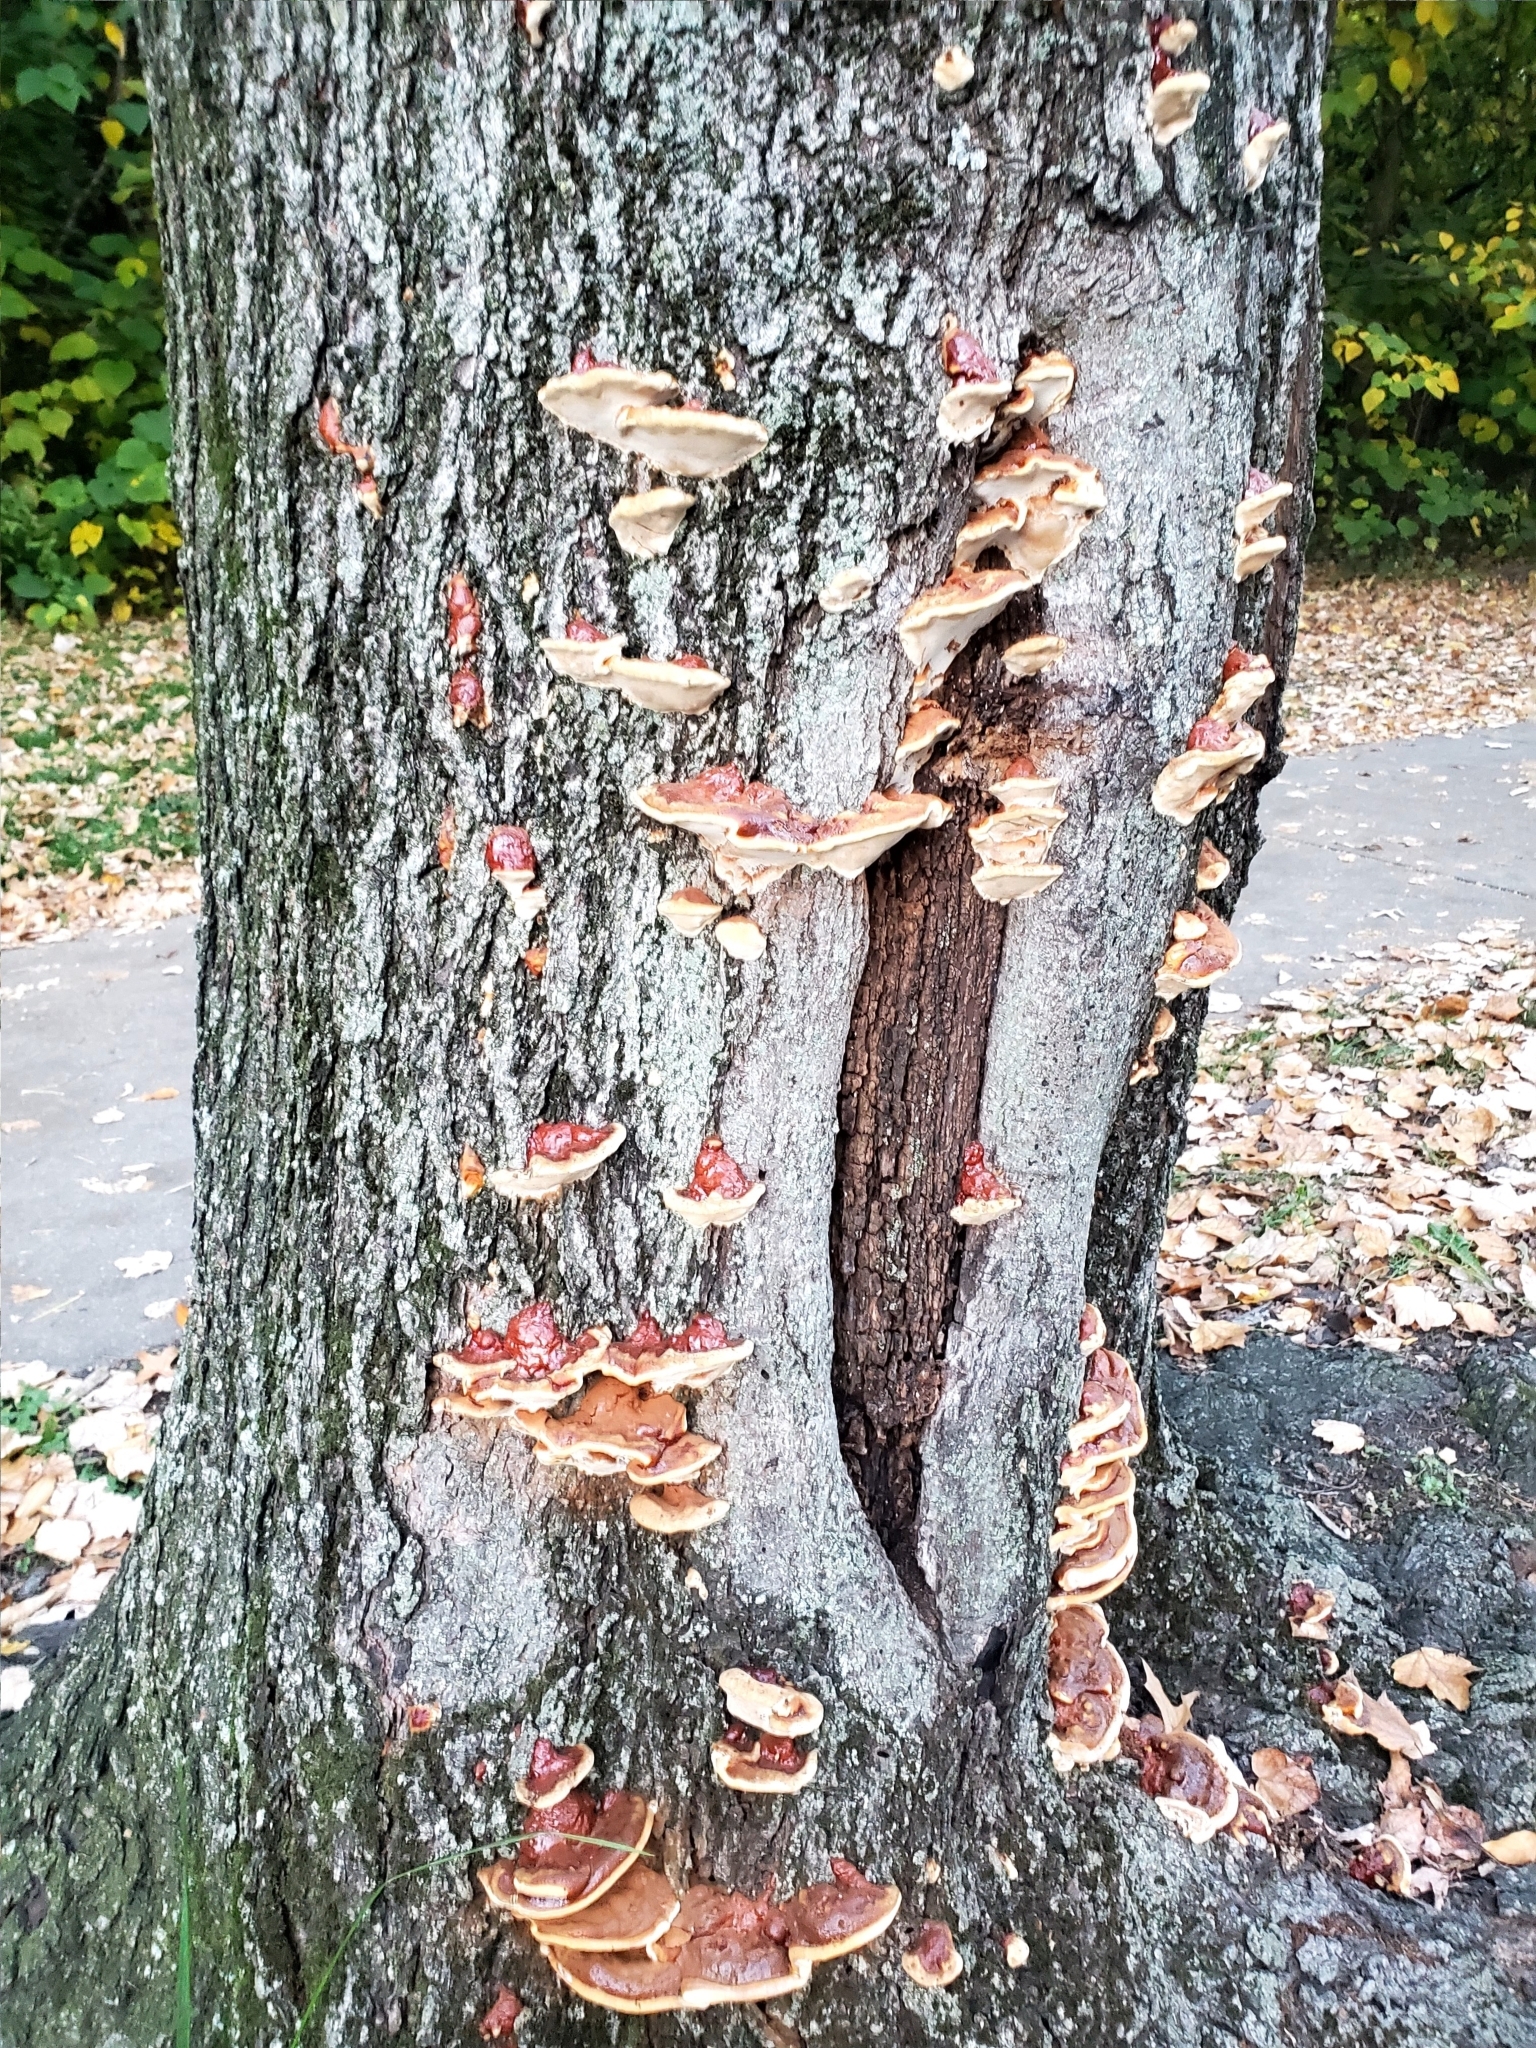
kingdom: Fungi
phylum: Basidiomycota
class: Agaricomycetes
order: Polyporales
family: Polyporaceae
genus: Ganoderma
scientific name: Ganoderma resinaceum
